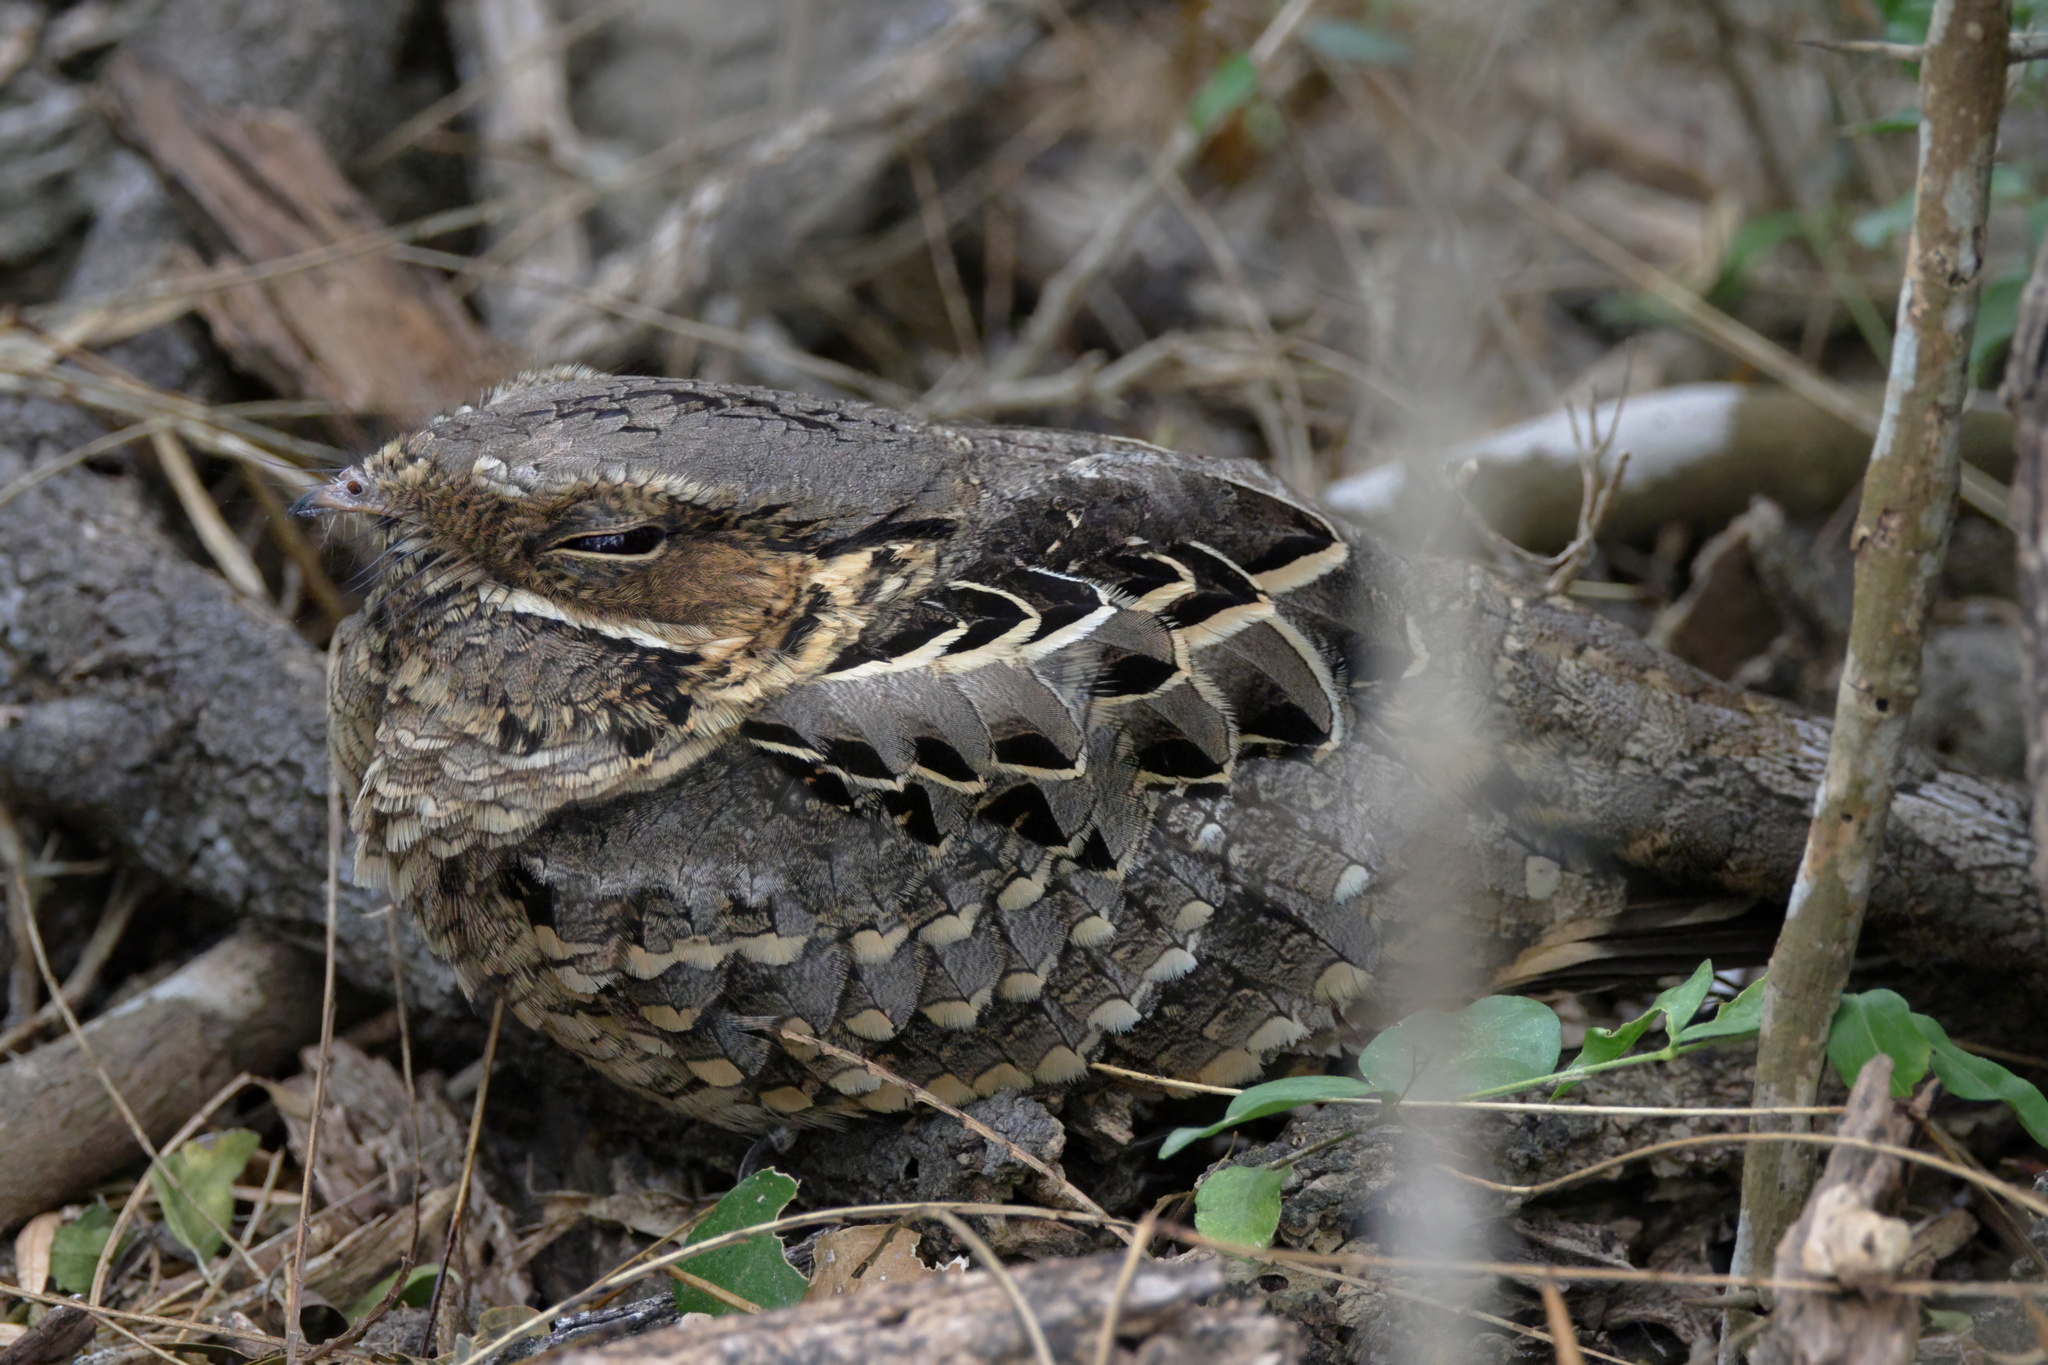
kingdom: Animalia
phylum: Chordata
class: Aves
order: Caprimulgiformes
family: Caprimulgidae
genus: Nyctidromus
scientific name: Nyctidromus albicollis
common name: Pauraque
